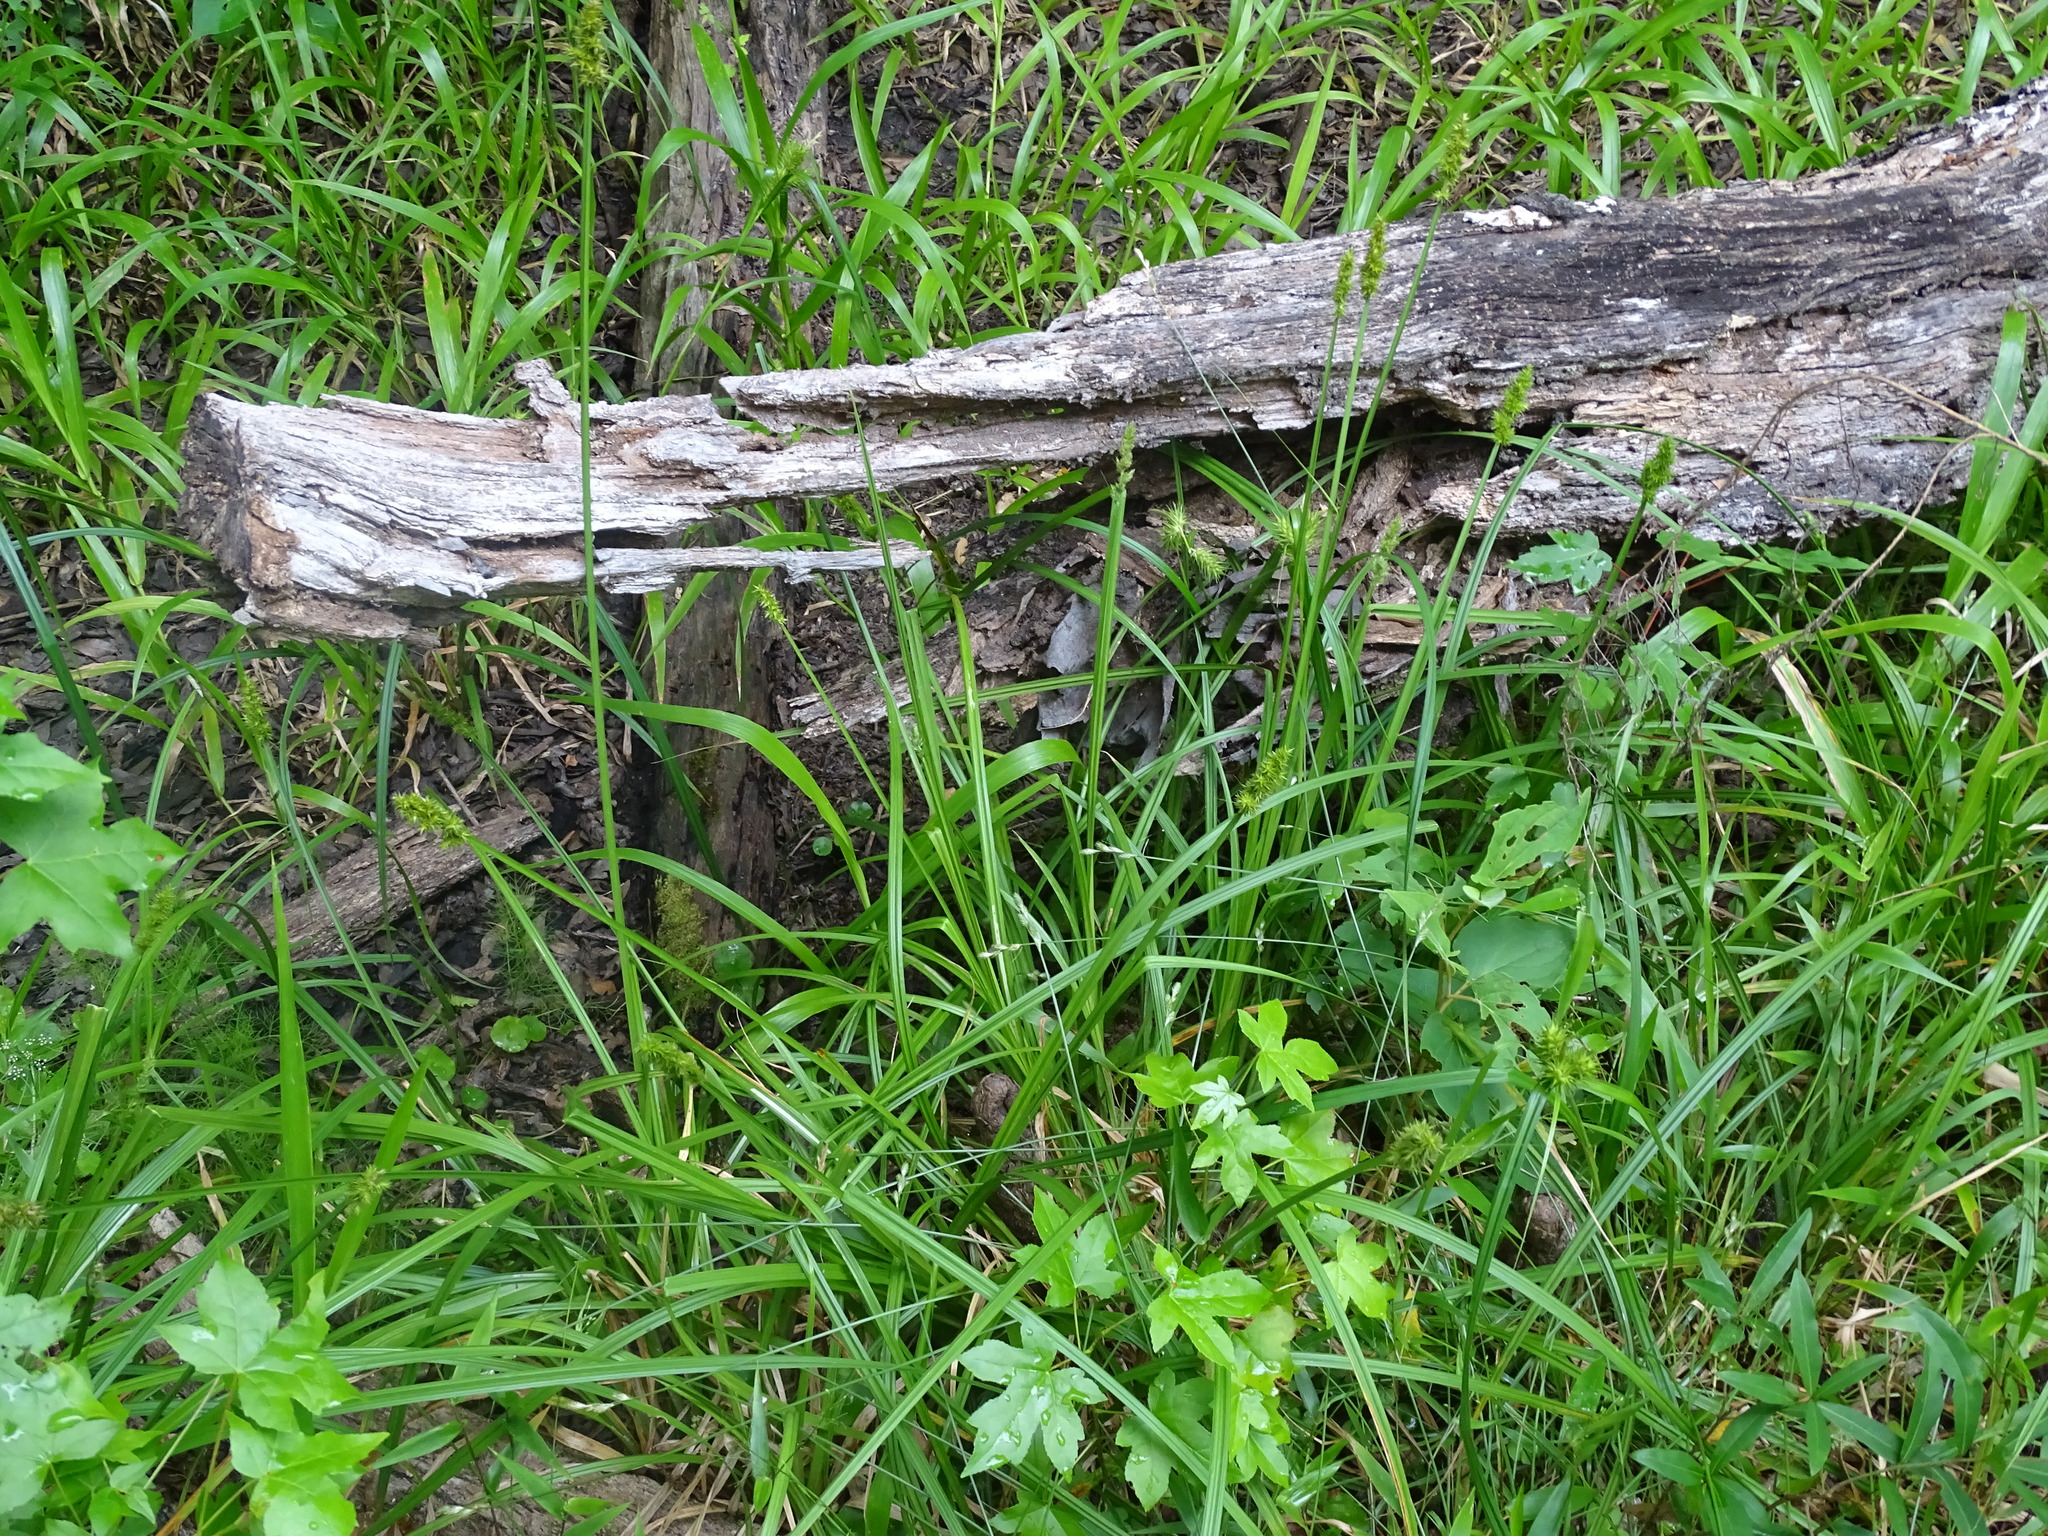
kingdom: Plantae
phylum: Tracheophyta
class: Liliopsida
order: Poales
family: Cyperaceae
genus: Carex
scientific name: Carex stipata
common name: Awl-fruited sedge
